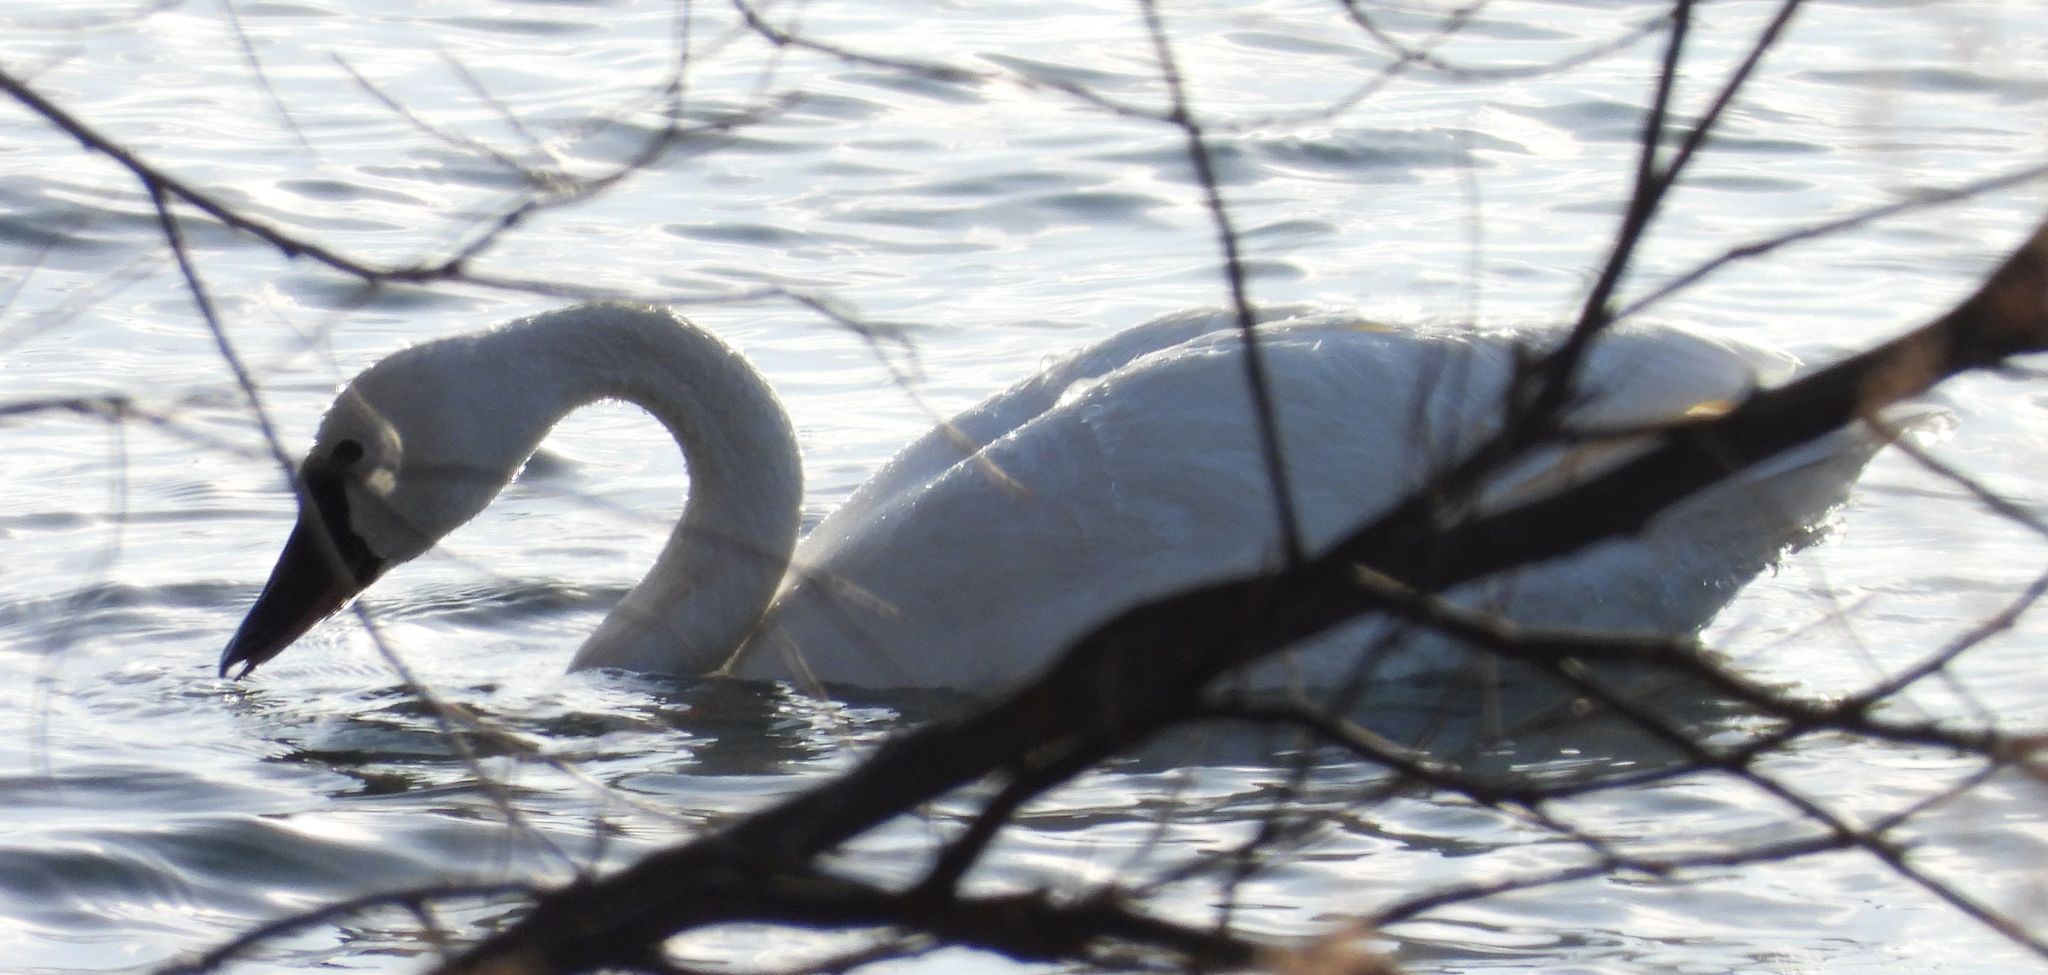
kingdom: Animalia
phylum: Chordata
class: Aves
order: Anseriformes
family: Anatidae
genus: Cygnus
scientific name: Cygnus columbianus
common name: Tundra swan
